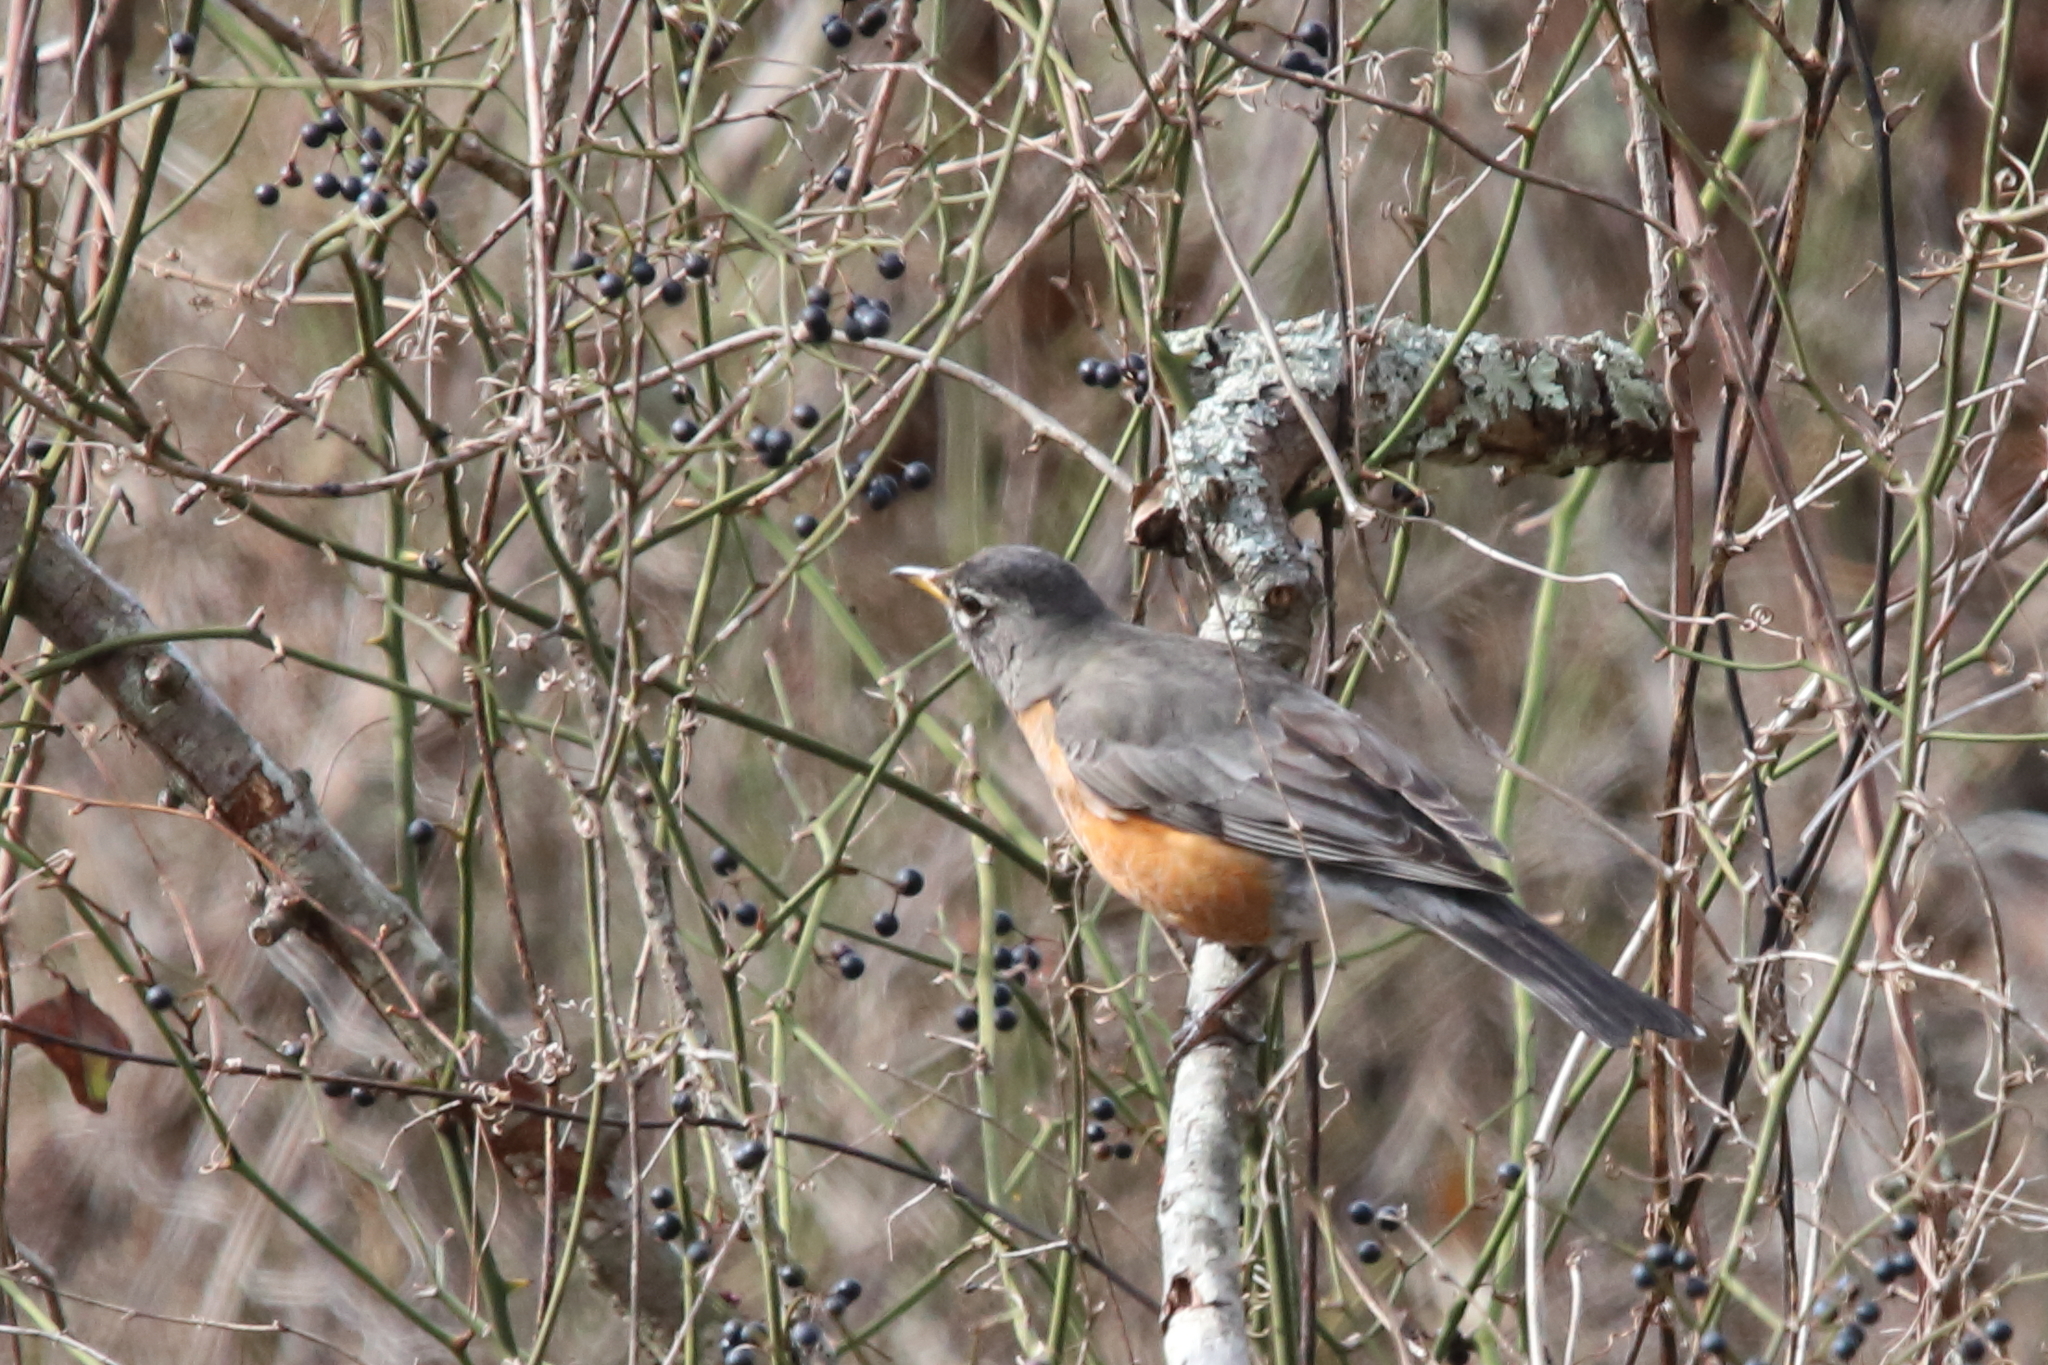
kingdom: Animalia
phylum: Chordata
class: Aves
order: Passeriformes
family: Turdidae
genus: Turdus
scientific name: Turdus migratorius
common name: American robin
